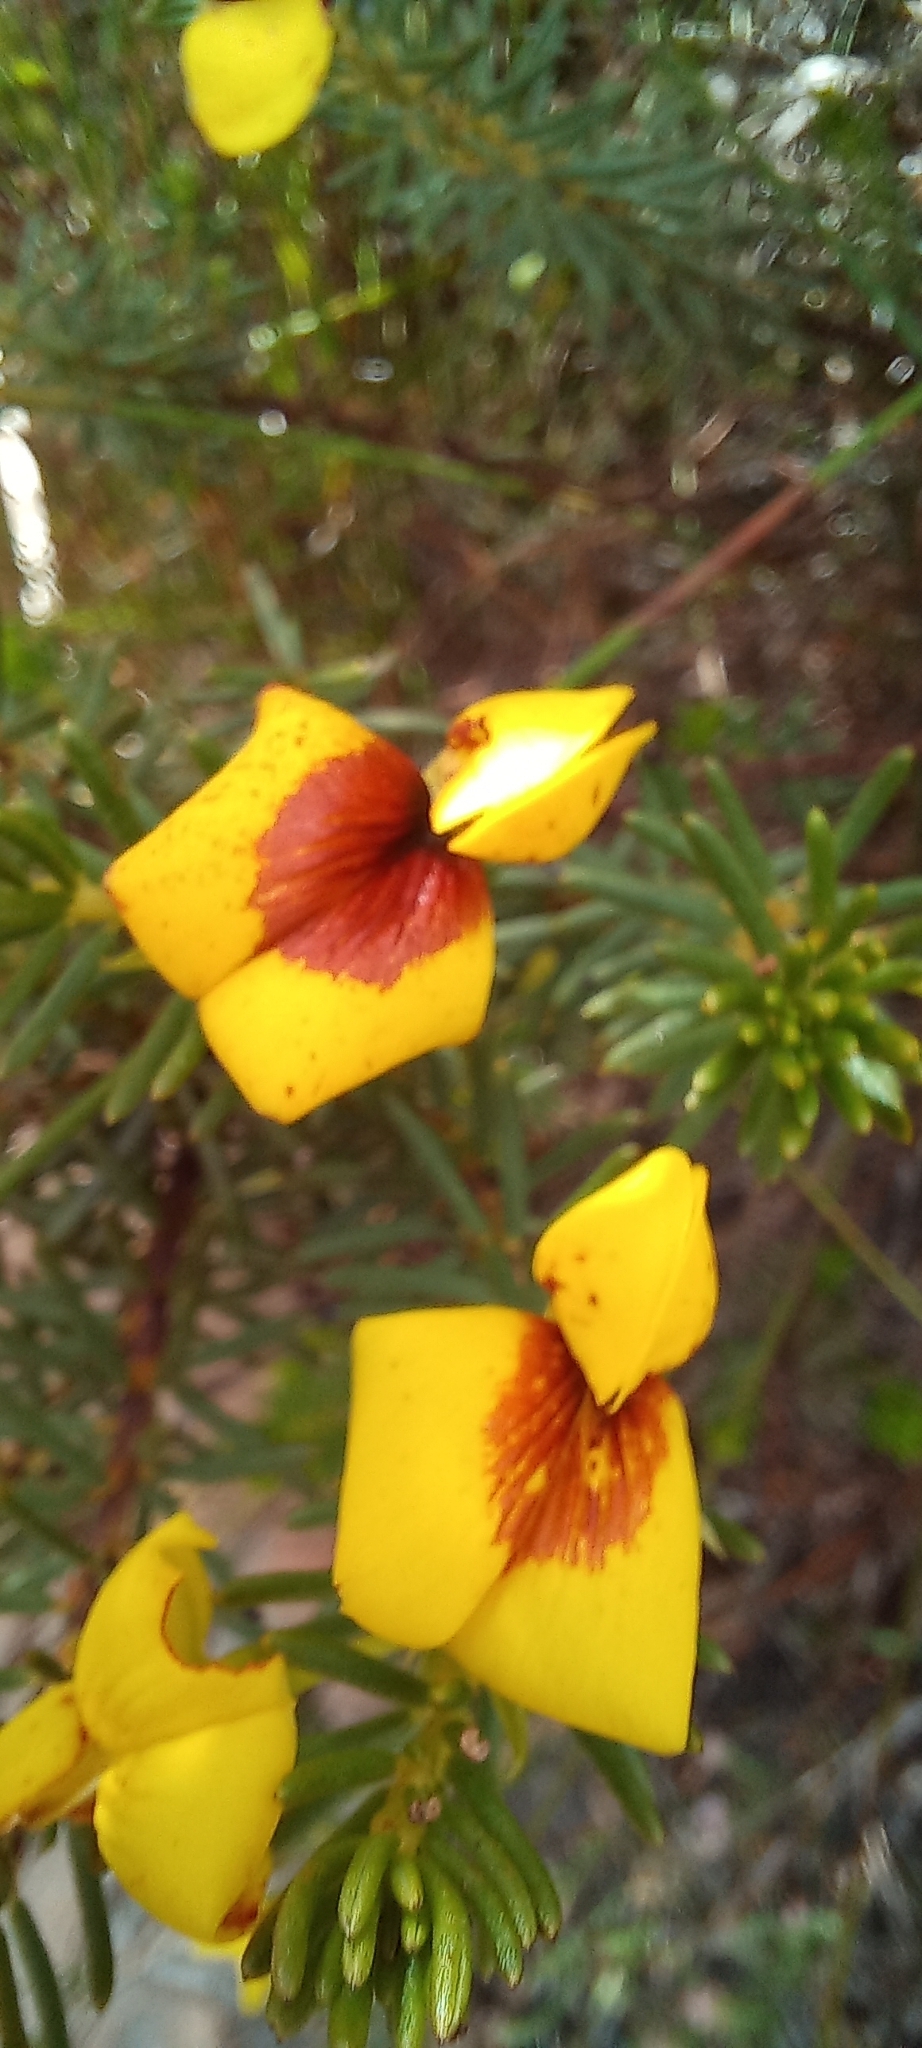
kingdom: Plantae
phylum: Tracheophyta
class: Magnoliopsida
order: Fabales
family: Fabaceae
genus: Cyclopia
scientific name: Cyclopia genistoides
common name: Honeybush tea
